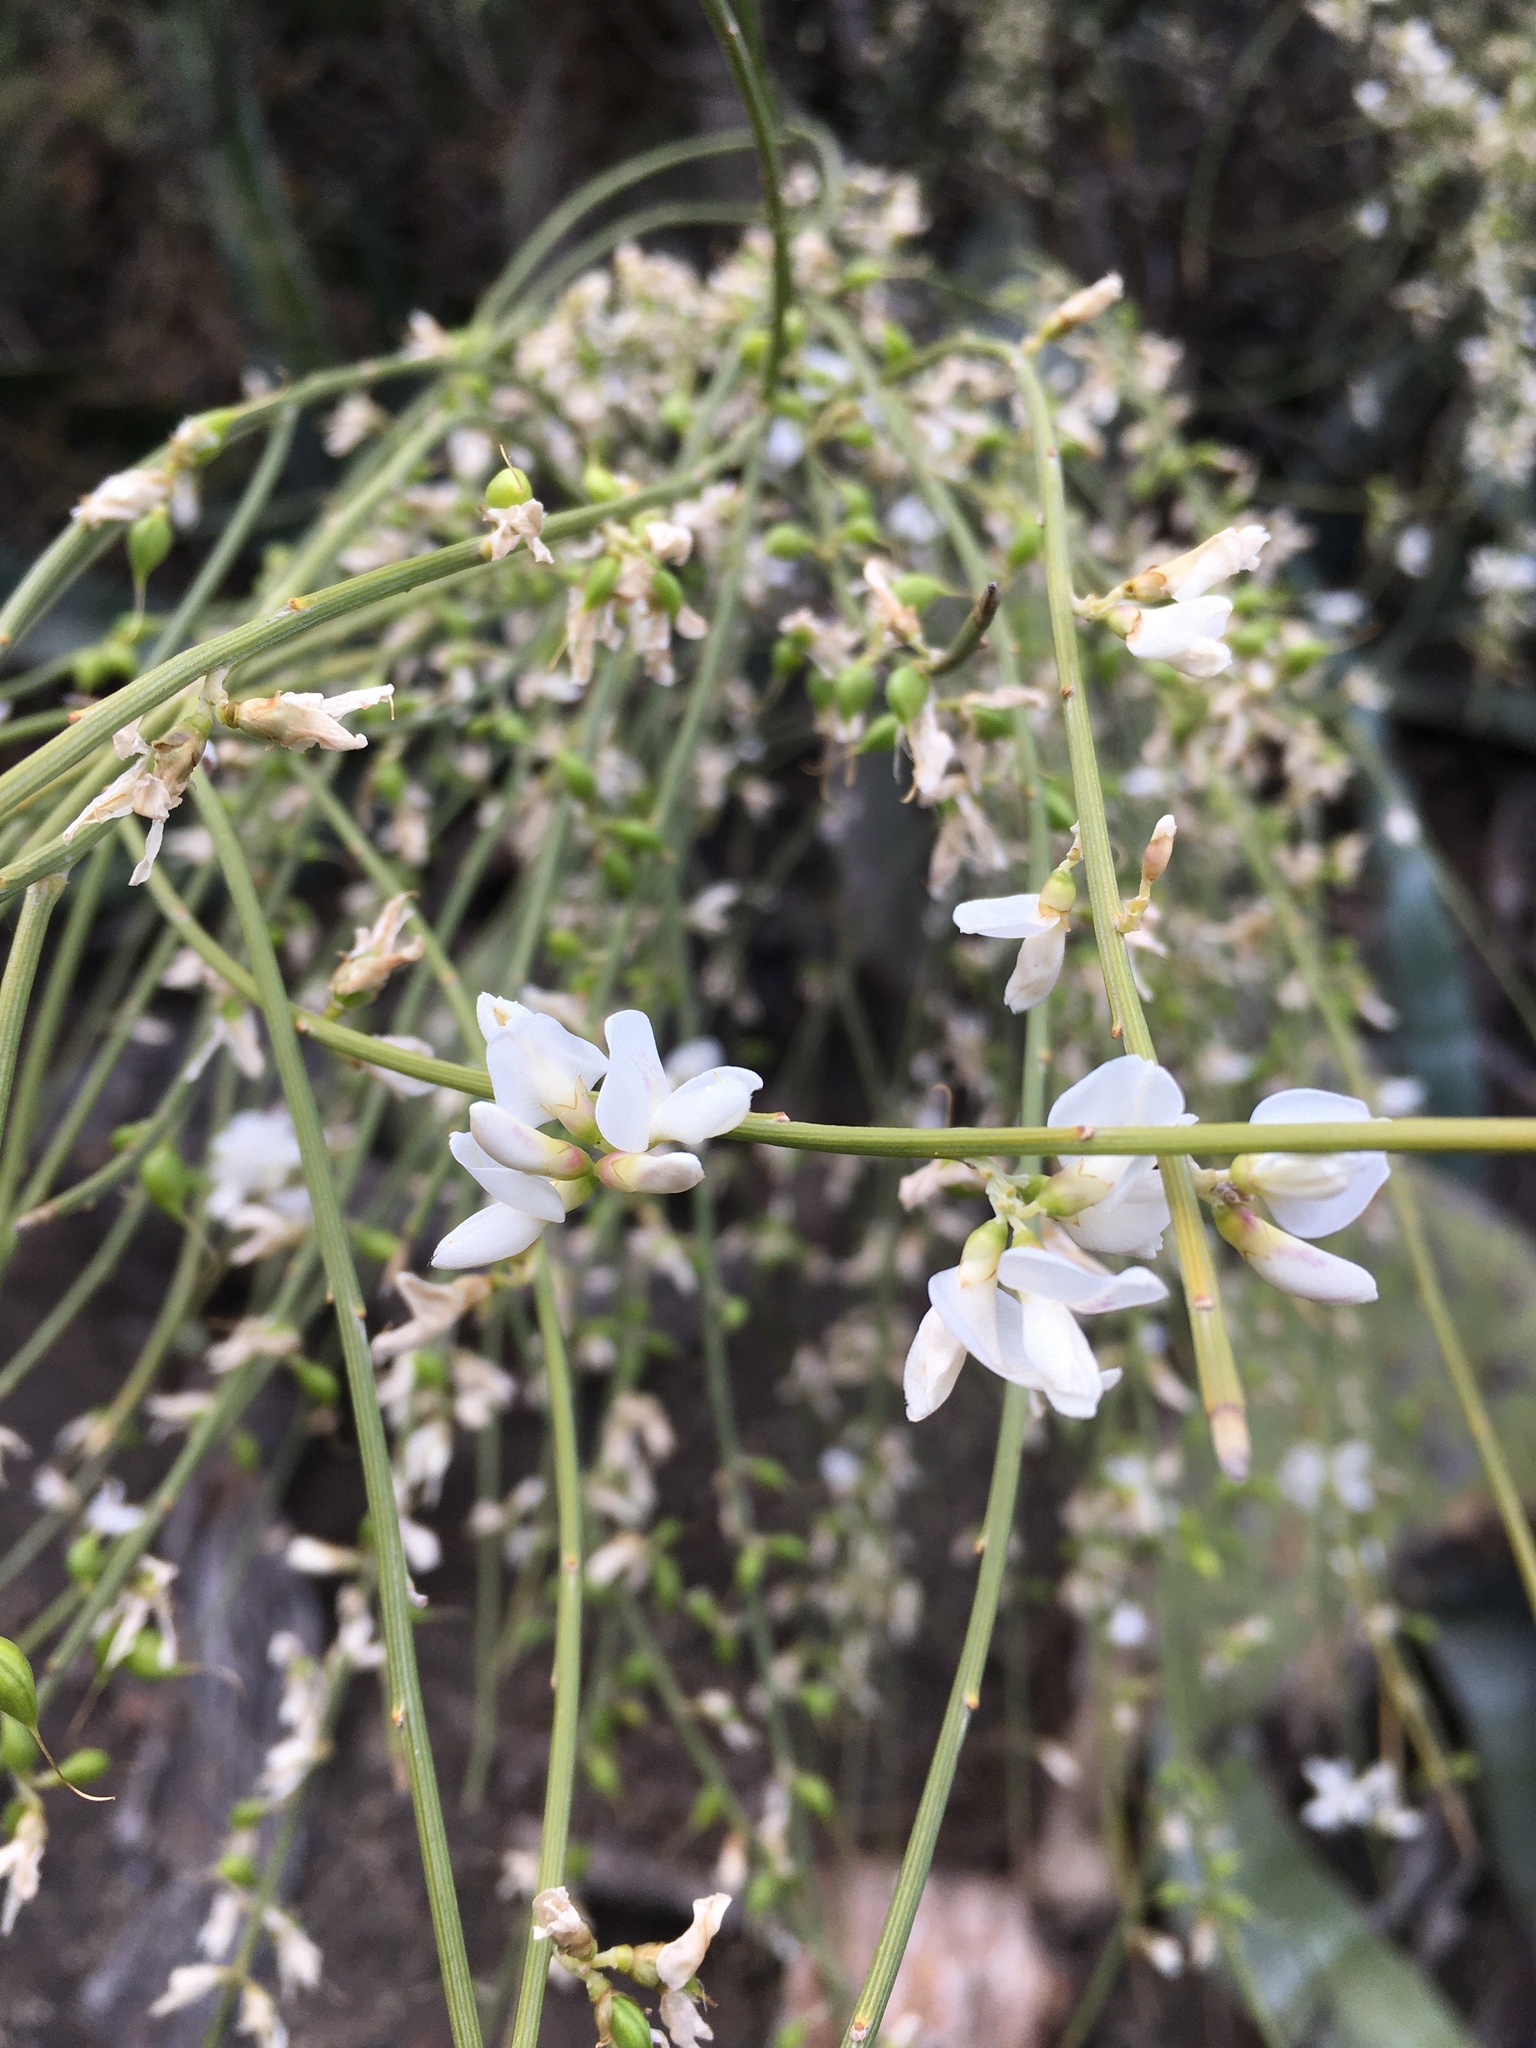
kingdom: Plantae
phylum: Tracheophyta
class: Magnoliopsida
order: Fabales
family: Fabaceae
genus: Retama
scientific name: Retama rhodorhizoides
